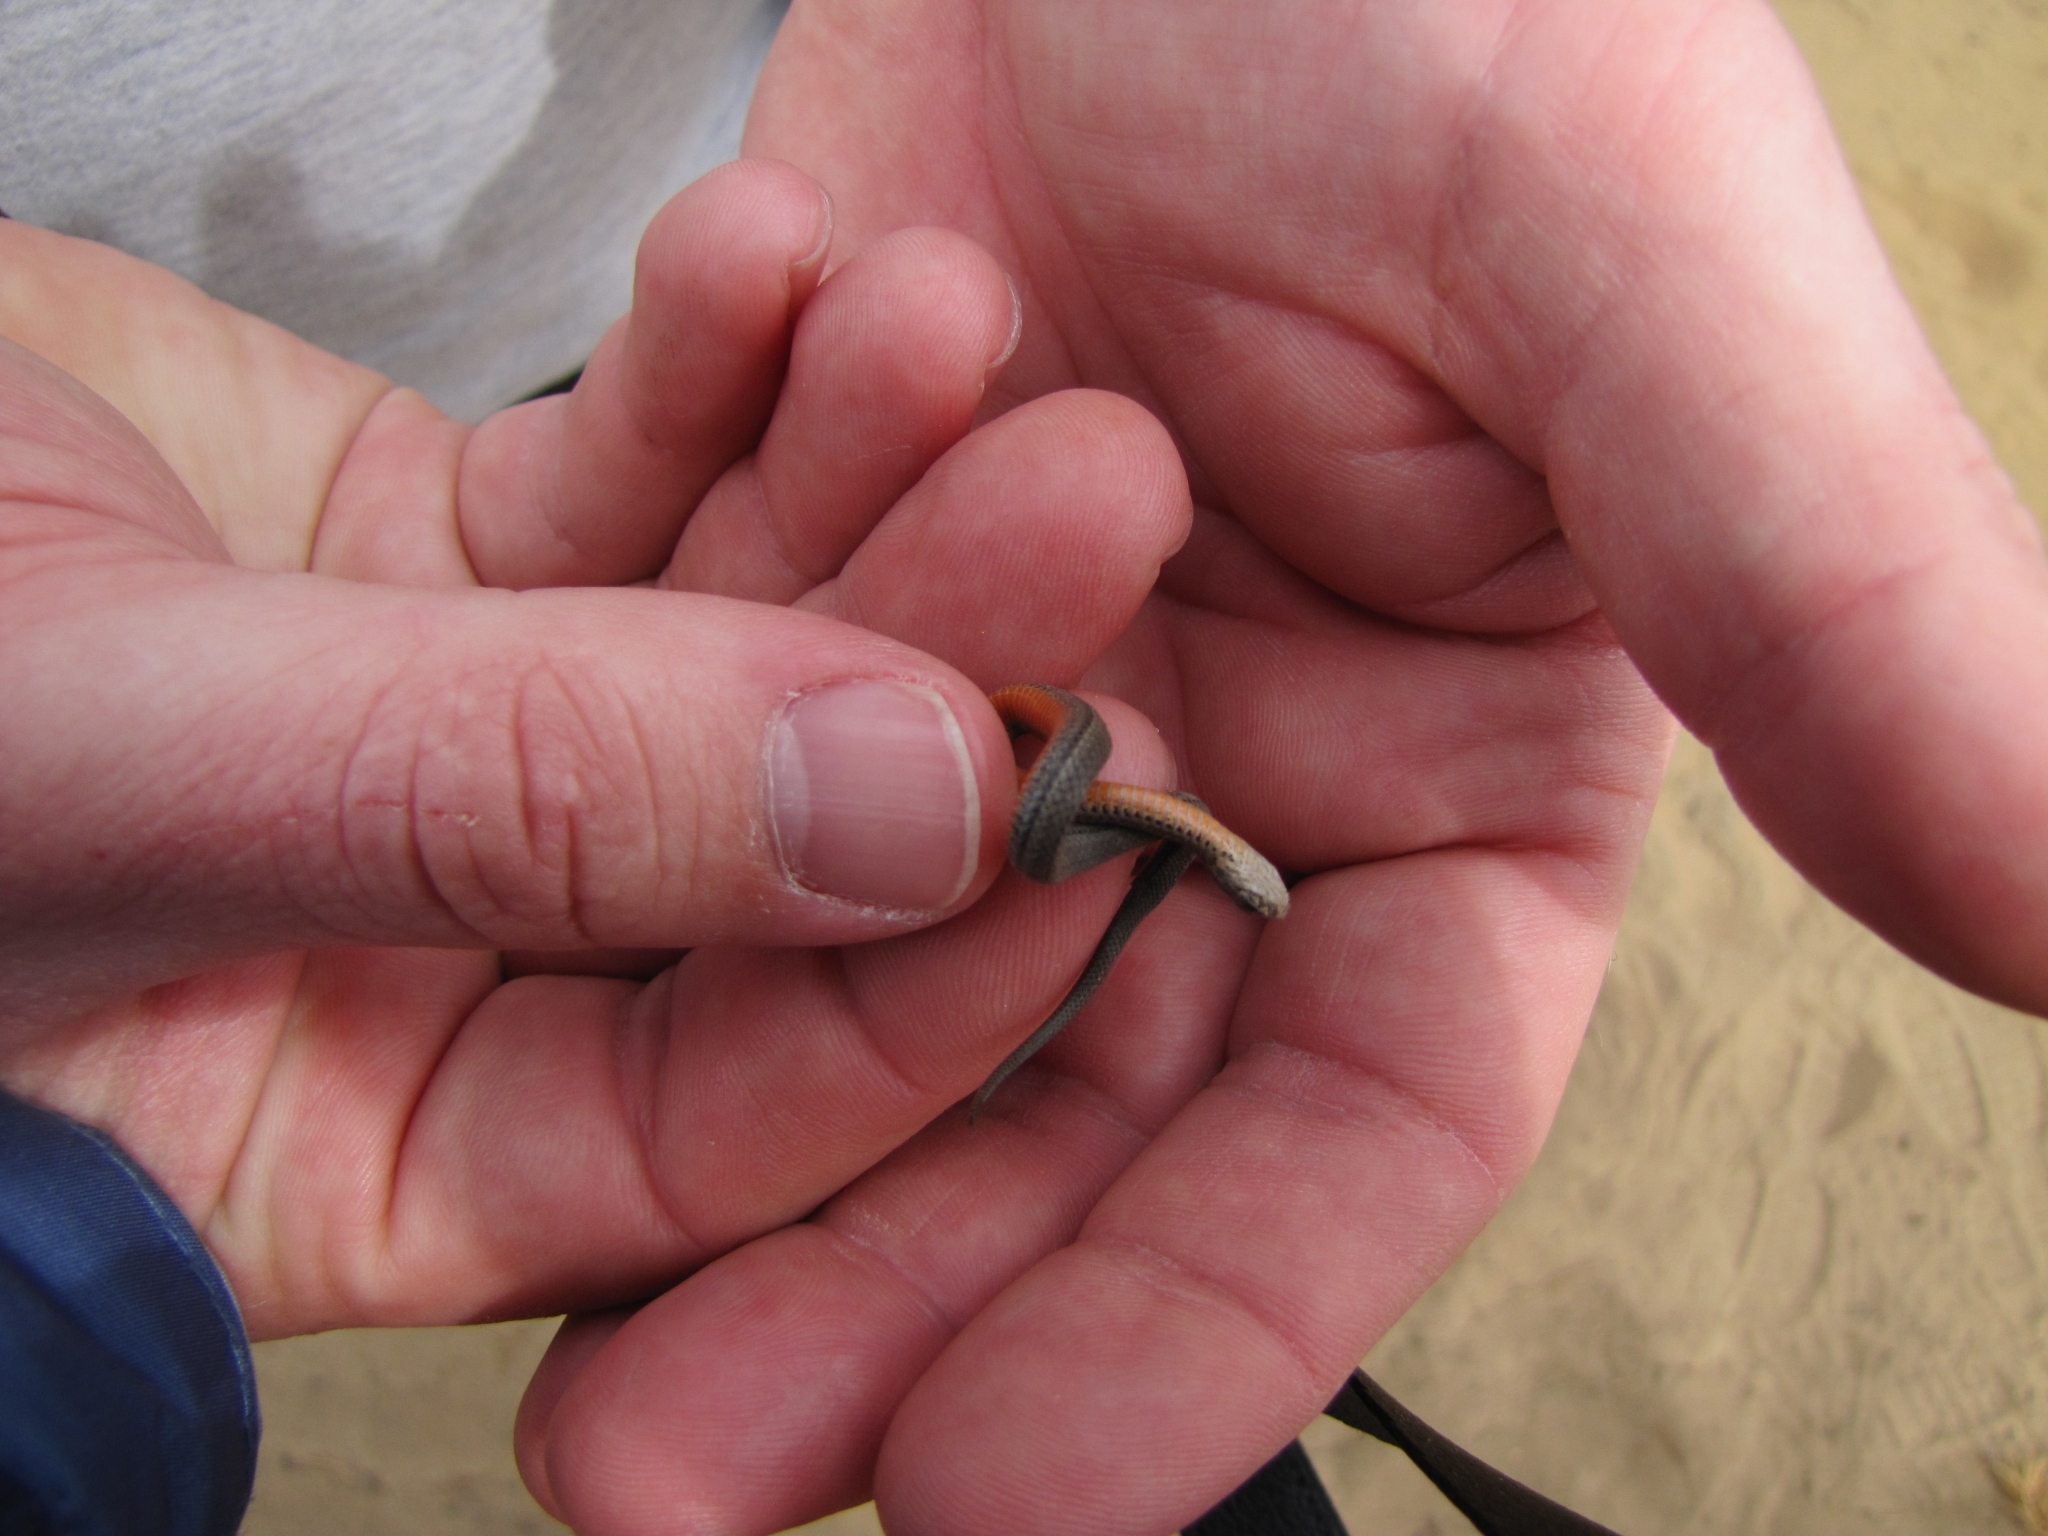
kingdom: Animalia
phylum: Chordata
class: Squamata
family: Colubridae
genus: Storeria
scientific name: Storeria occipitomaculata
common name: Redbelly snake
